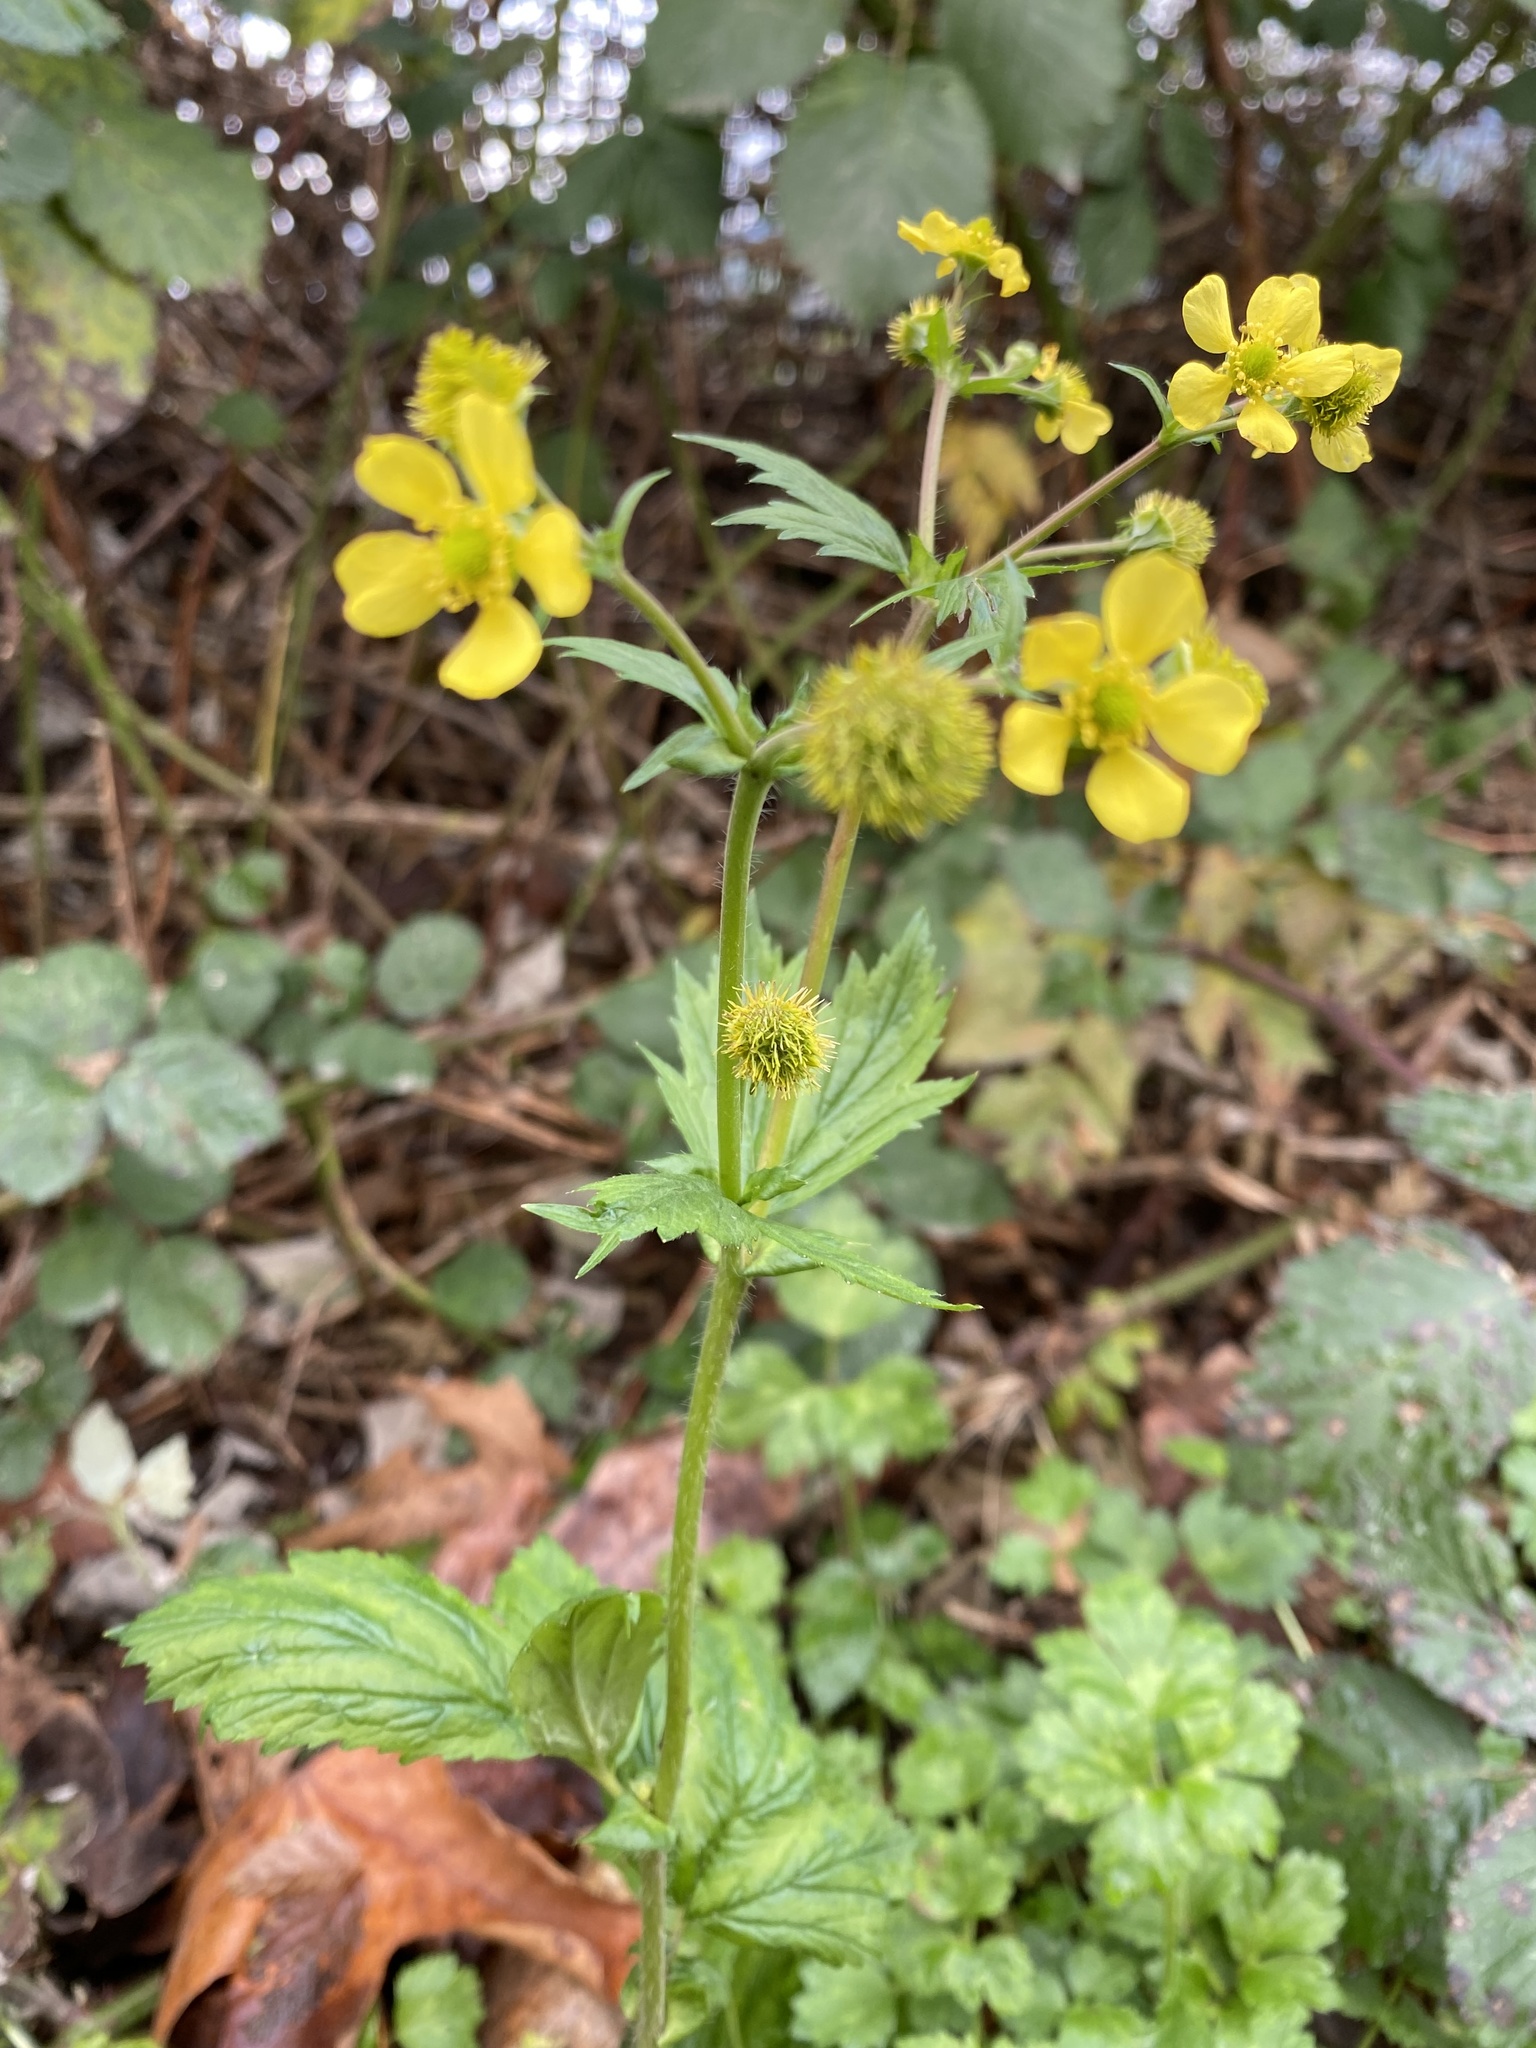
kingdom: Plantae
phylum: Tracheophyta
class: Magnoliopsida
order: Rosales
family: Rosaceae
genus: Geum
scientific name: Geum macrophyllum
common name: Large-leaved avens
